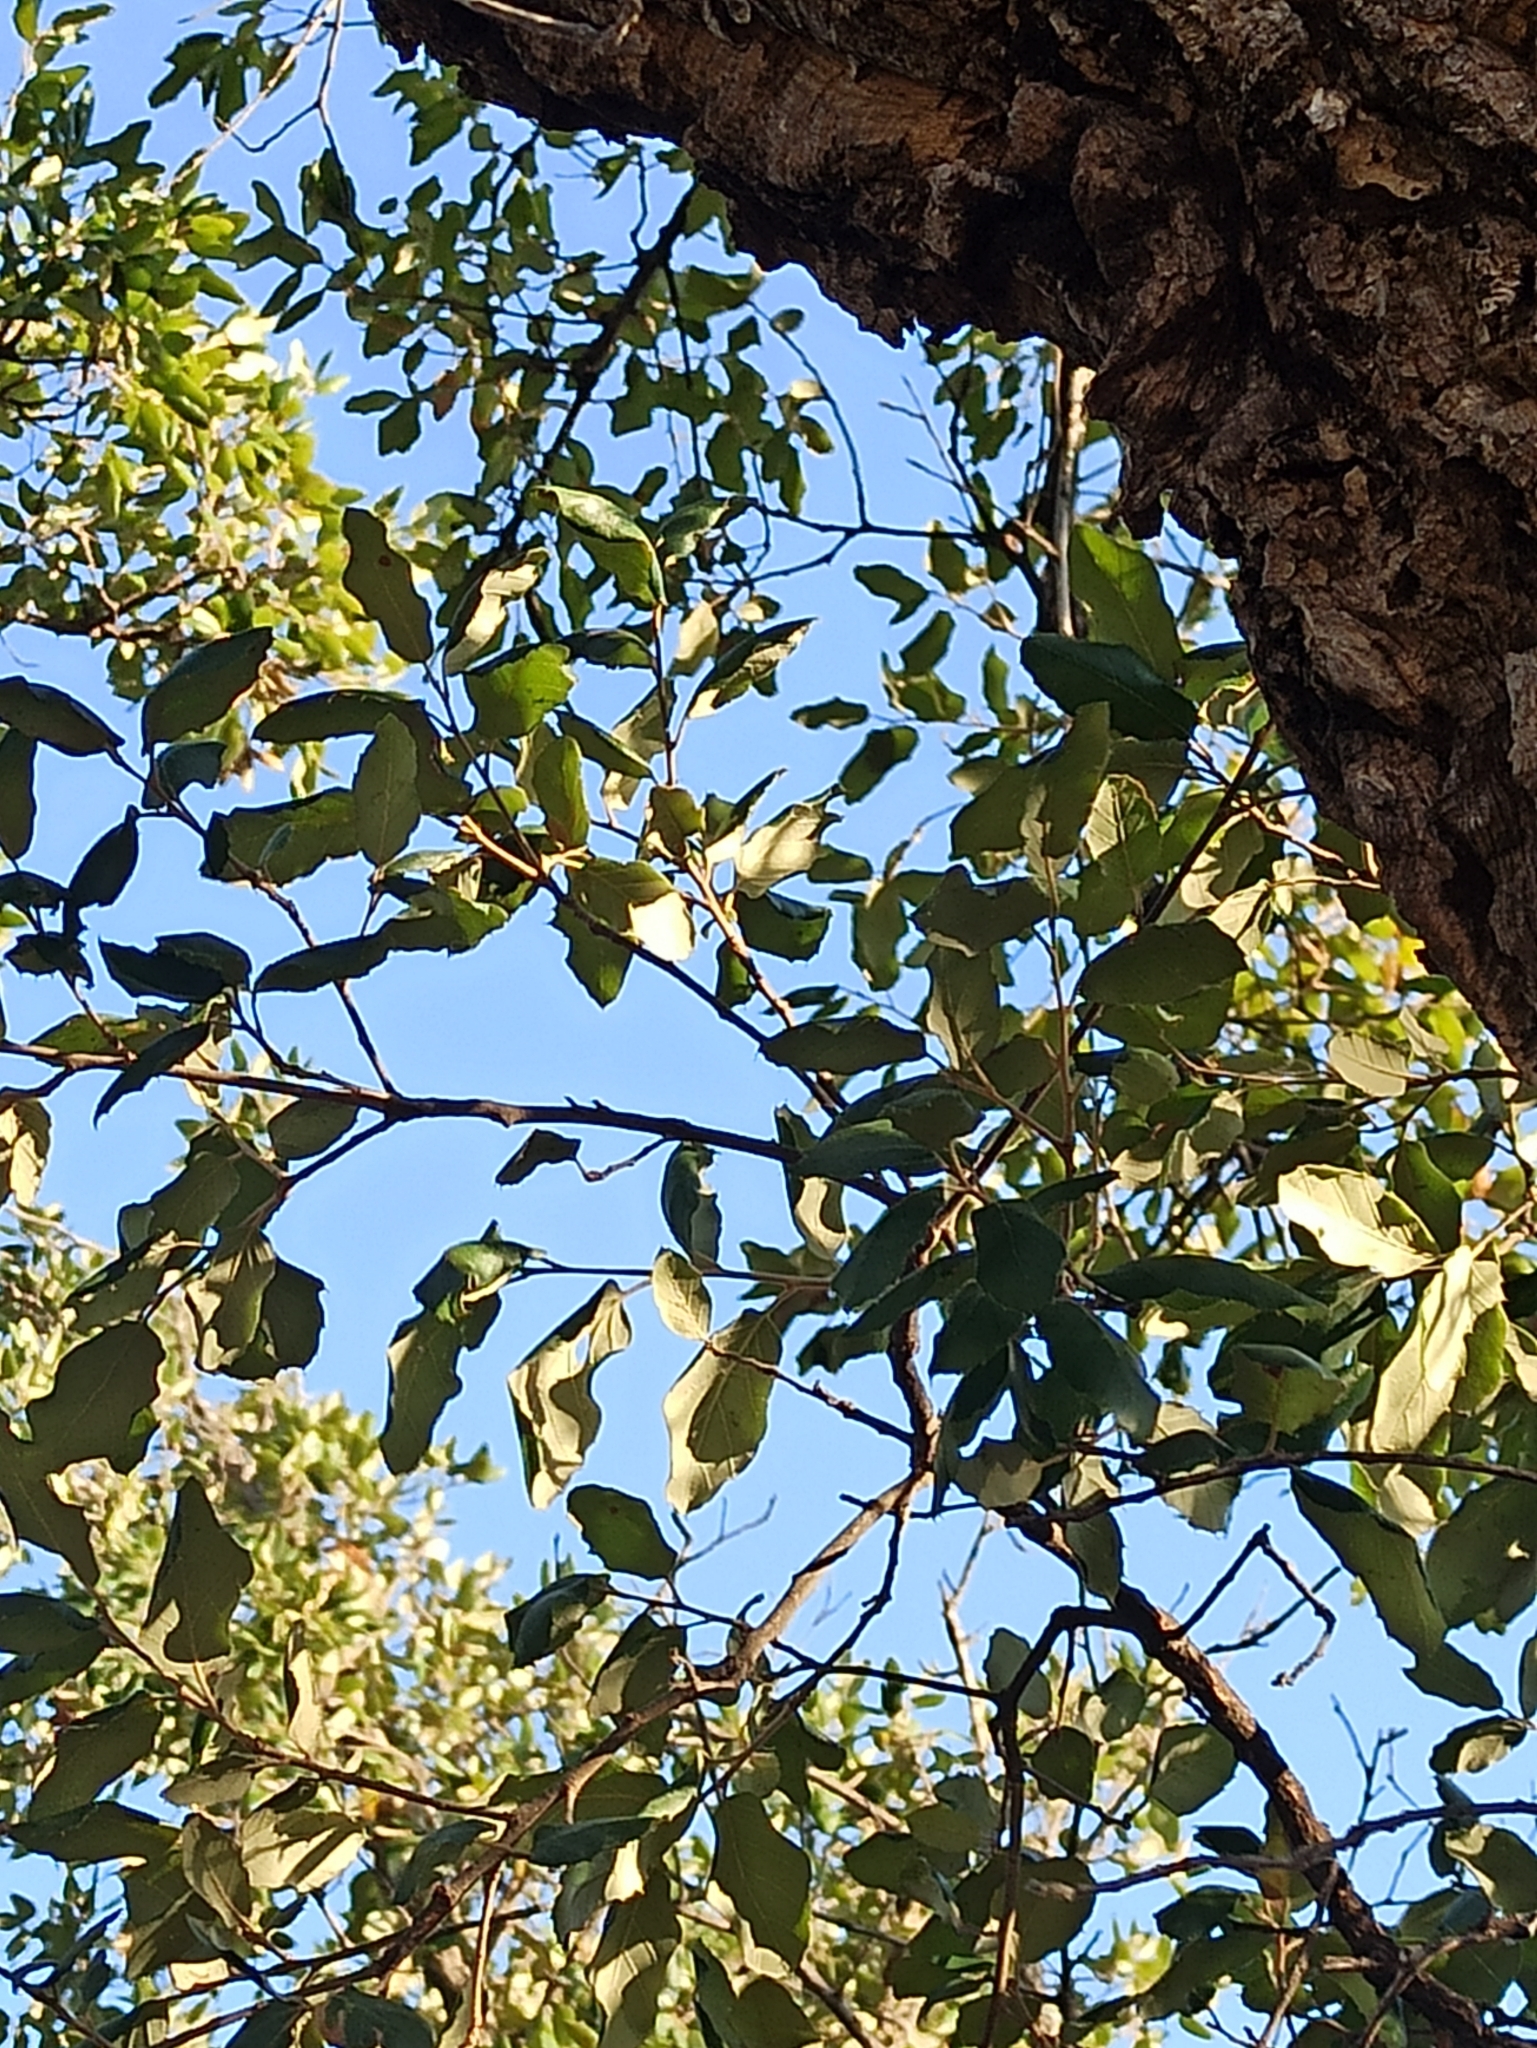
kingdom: Plantae
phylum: Tracheophyta
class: Magnoliopsida
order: Fagales
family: Fagaceae
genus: Quercus
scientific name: Quercus suber
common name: Cork oak
